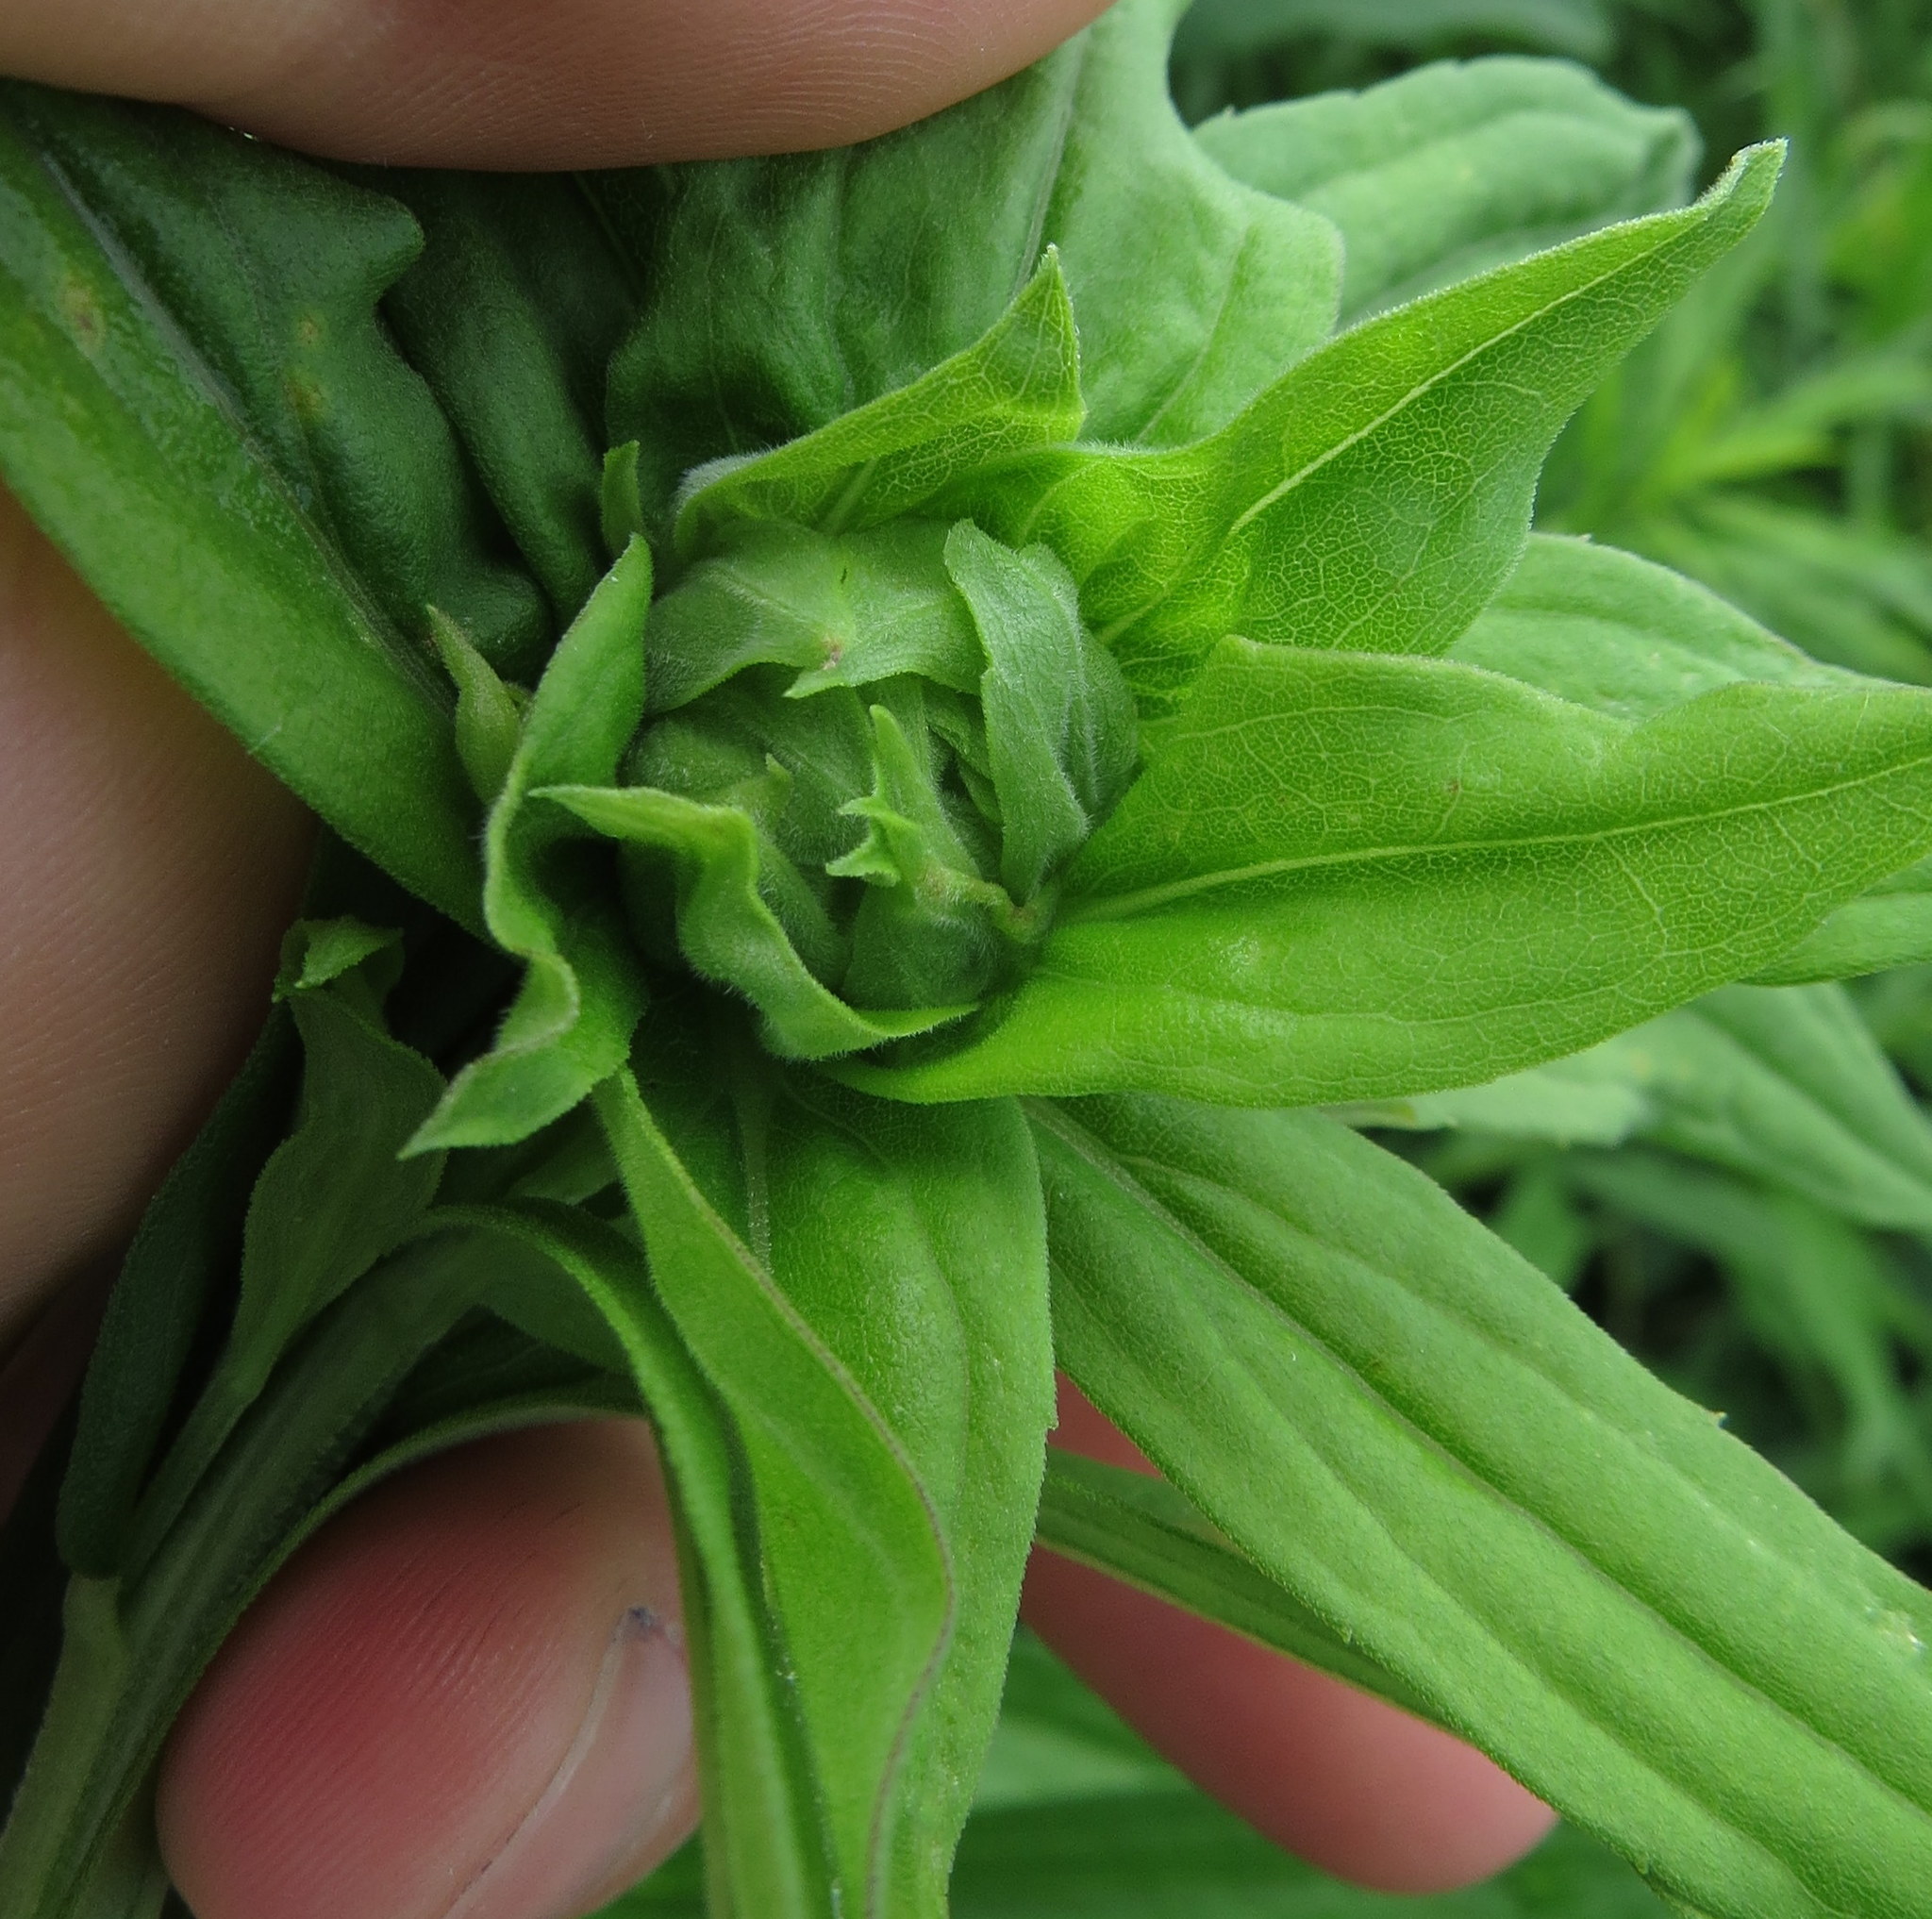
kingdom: Animalia
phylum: Arthropoda
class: Insecta
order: Diptera
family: Cecidomyiidae
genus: Rhopalomyia
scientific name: Rhopalomyia solidaginis
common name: Goldenrod bunch gall midge
